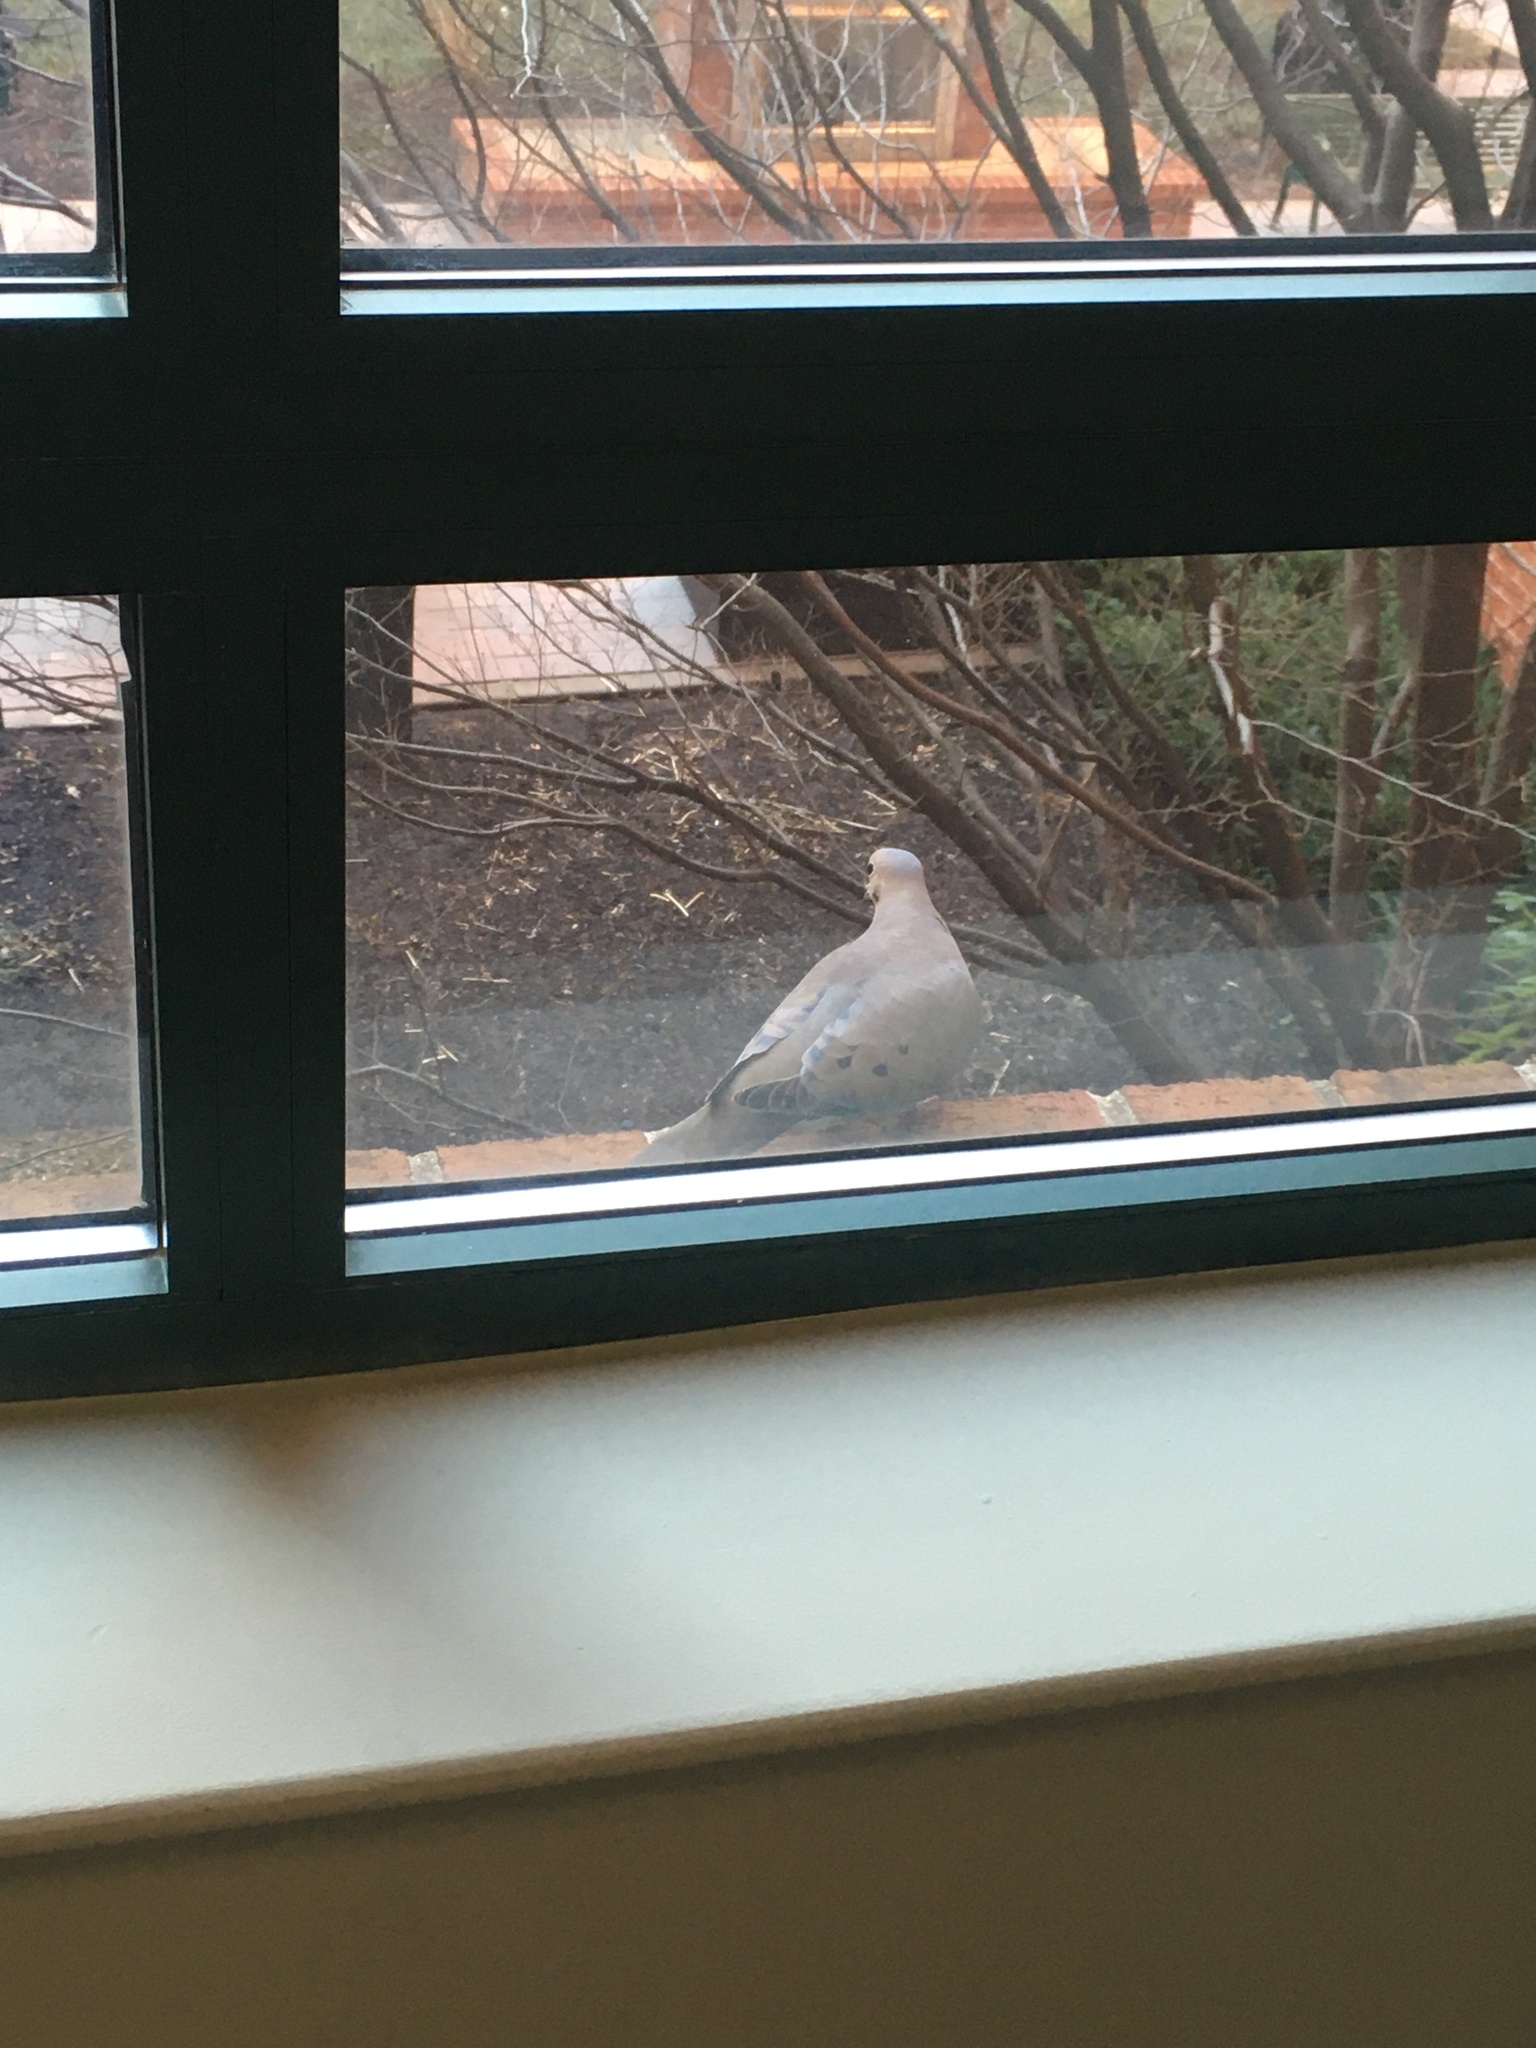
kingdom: Animalia
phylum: Chordata
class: Aves
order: Columbiformes
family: Columbidae
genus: Zenaida
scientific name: Zenaida macroura
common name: Mourning dove
